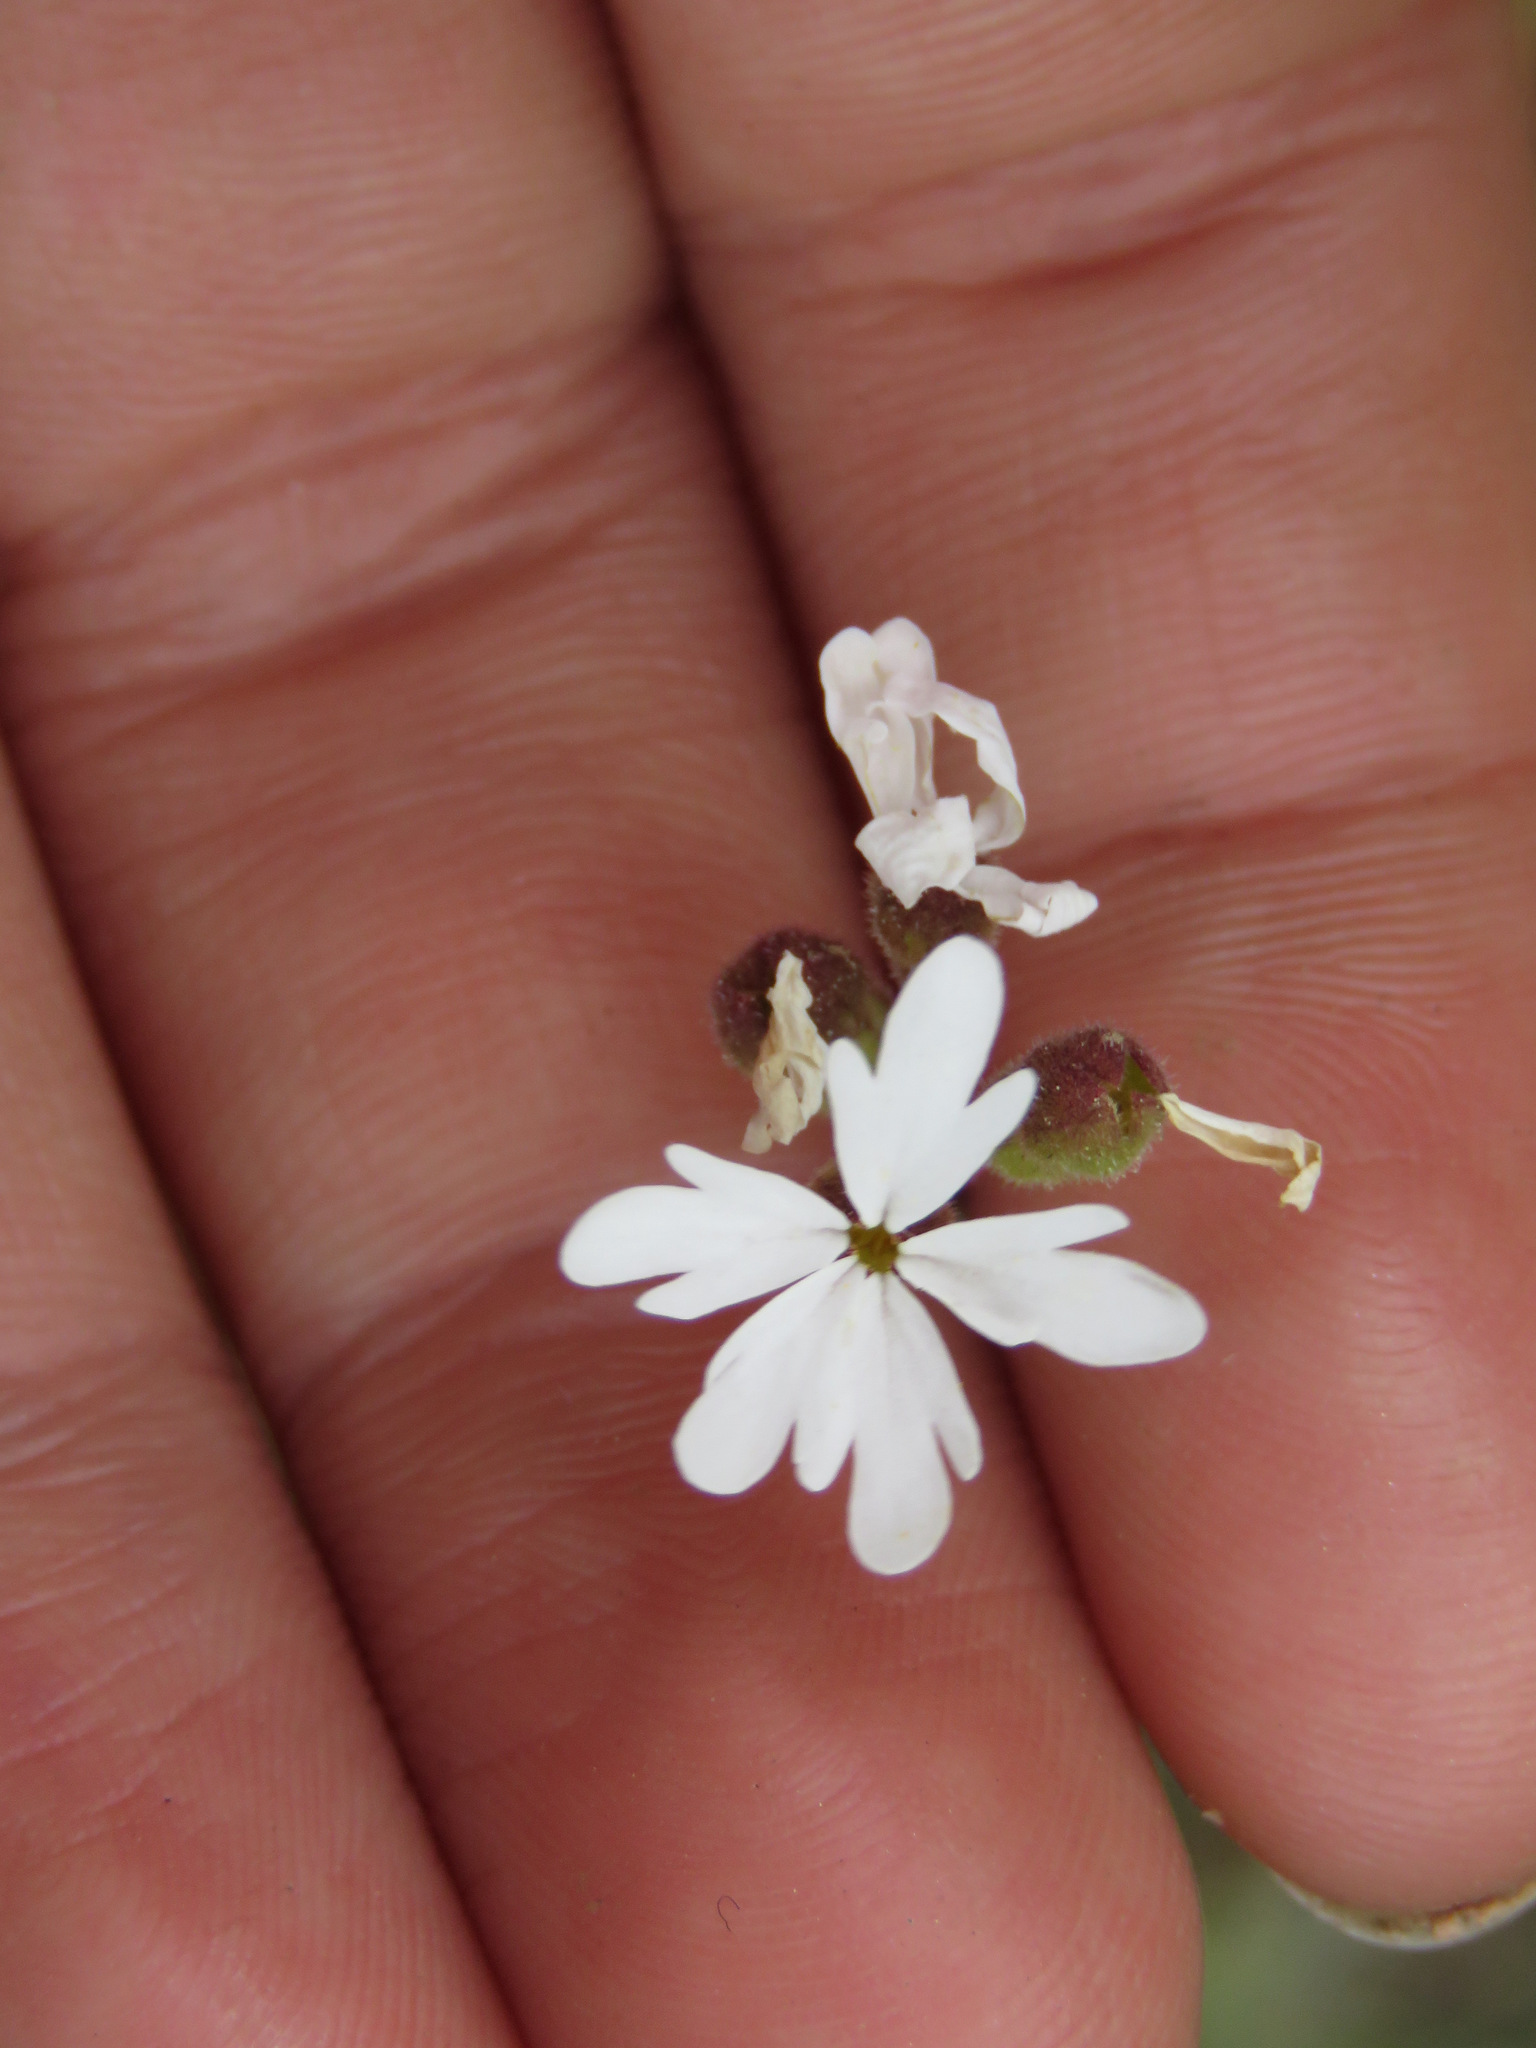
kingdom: Plantae
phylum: Tracheophyta
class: Magnoliopsida
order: Saxifragales
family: Saxifragaceae
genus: Lithophragma
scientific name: Lithophragma parviflorum
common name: Small-flowered fringe-cup
